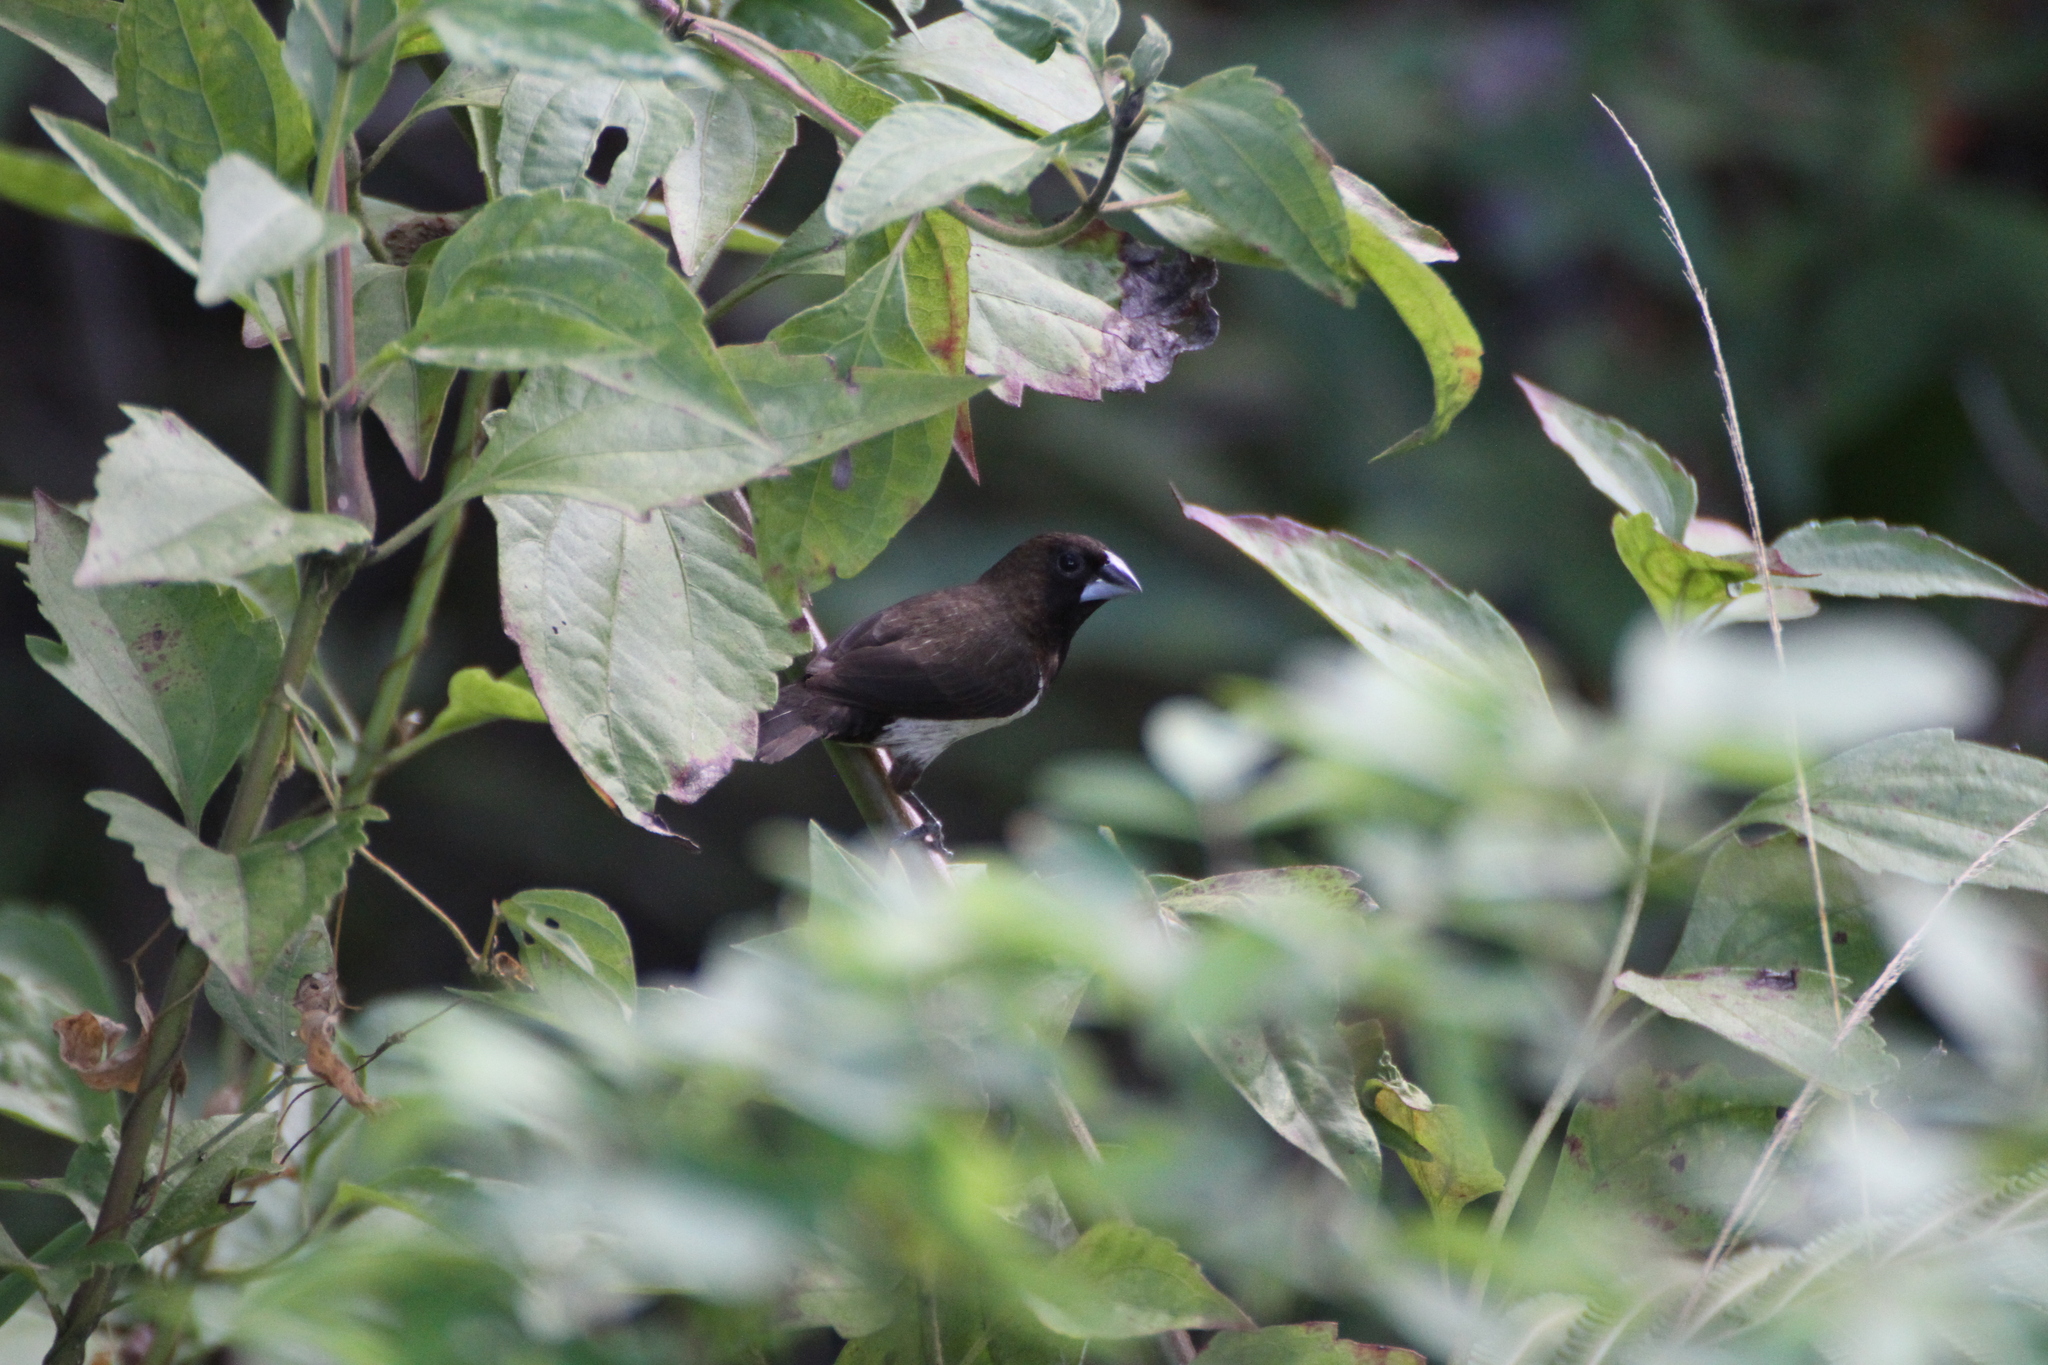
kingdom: Animalia
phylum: Chordata
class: Aves
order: Passeriformes
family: Estrildidae
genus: Lonchura
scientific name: Lonchura leucogastroides
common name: Javan munia
